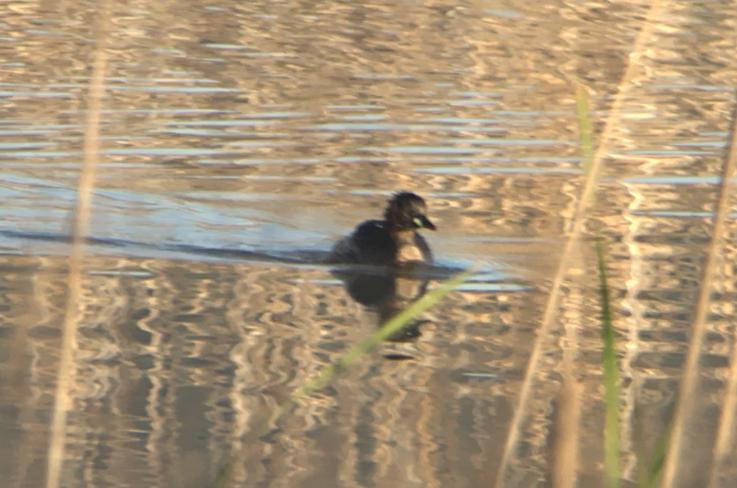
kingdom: Animalia
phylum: Chordata
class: Aves
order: Podicipediformes
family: Podicipedidae
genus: Tachybaptus
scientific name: Tachybaptus ruficollis
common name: Little grebe
